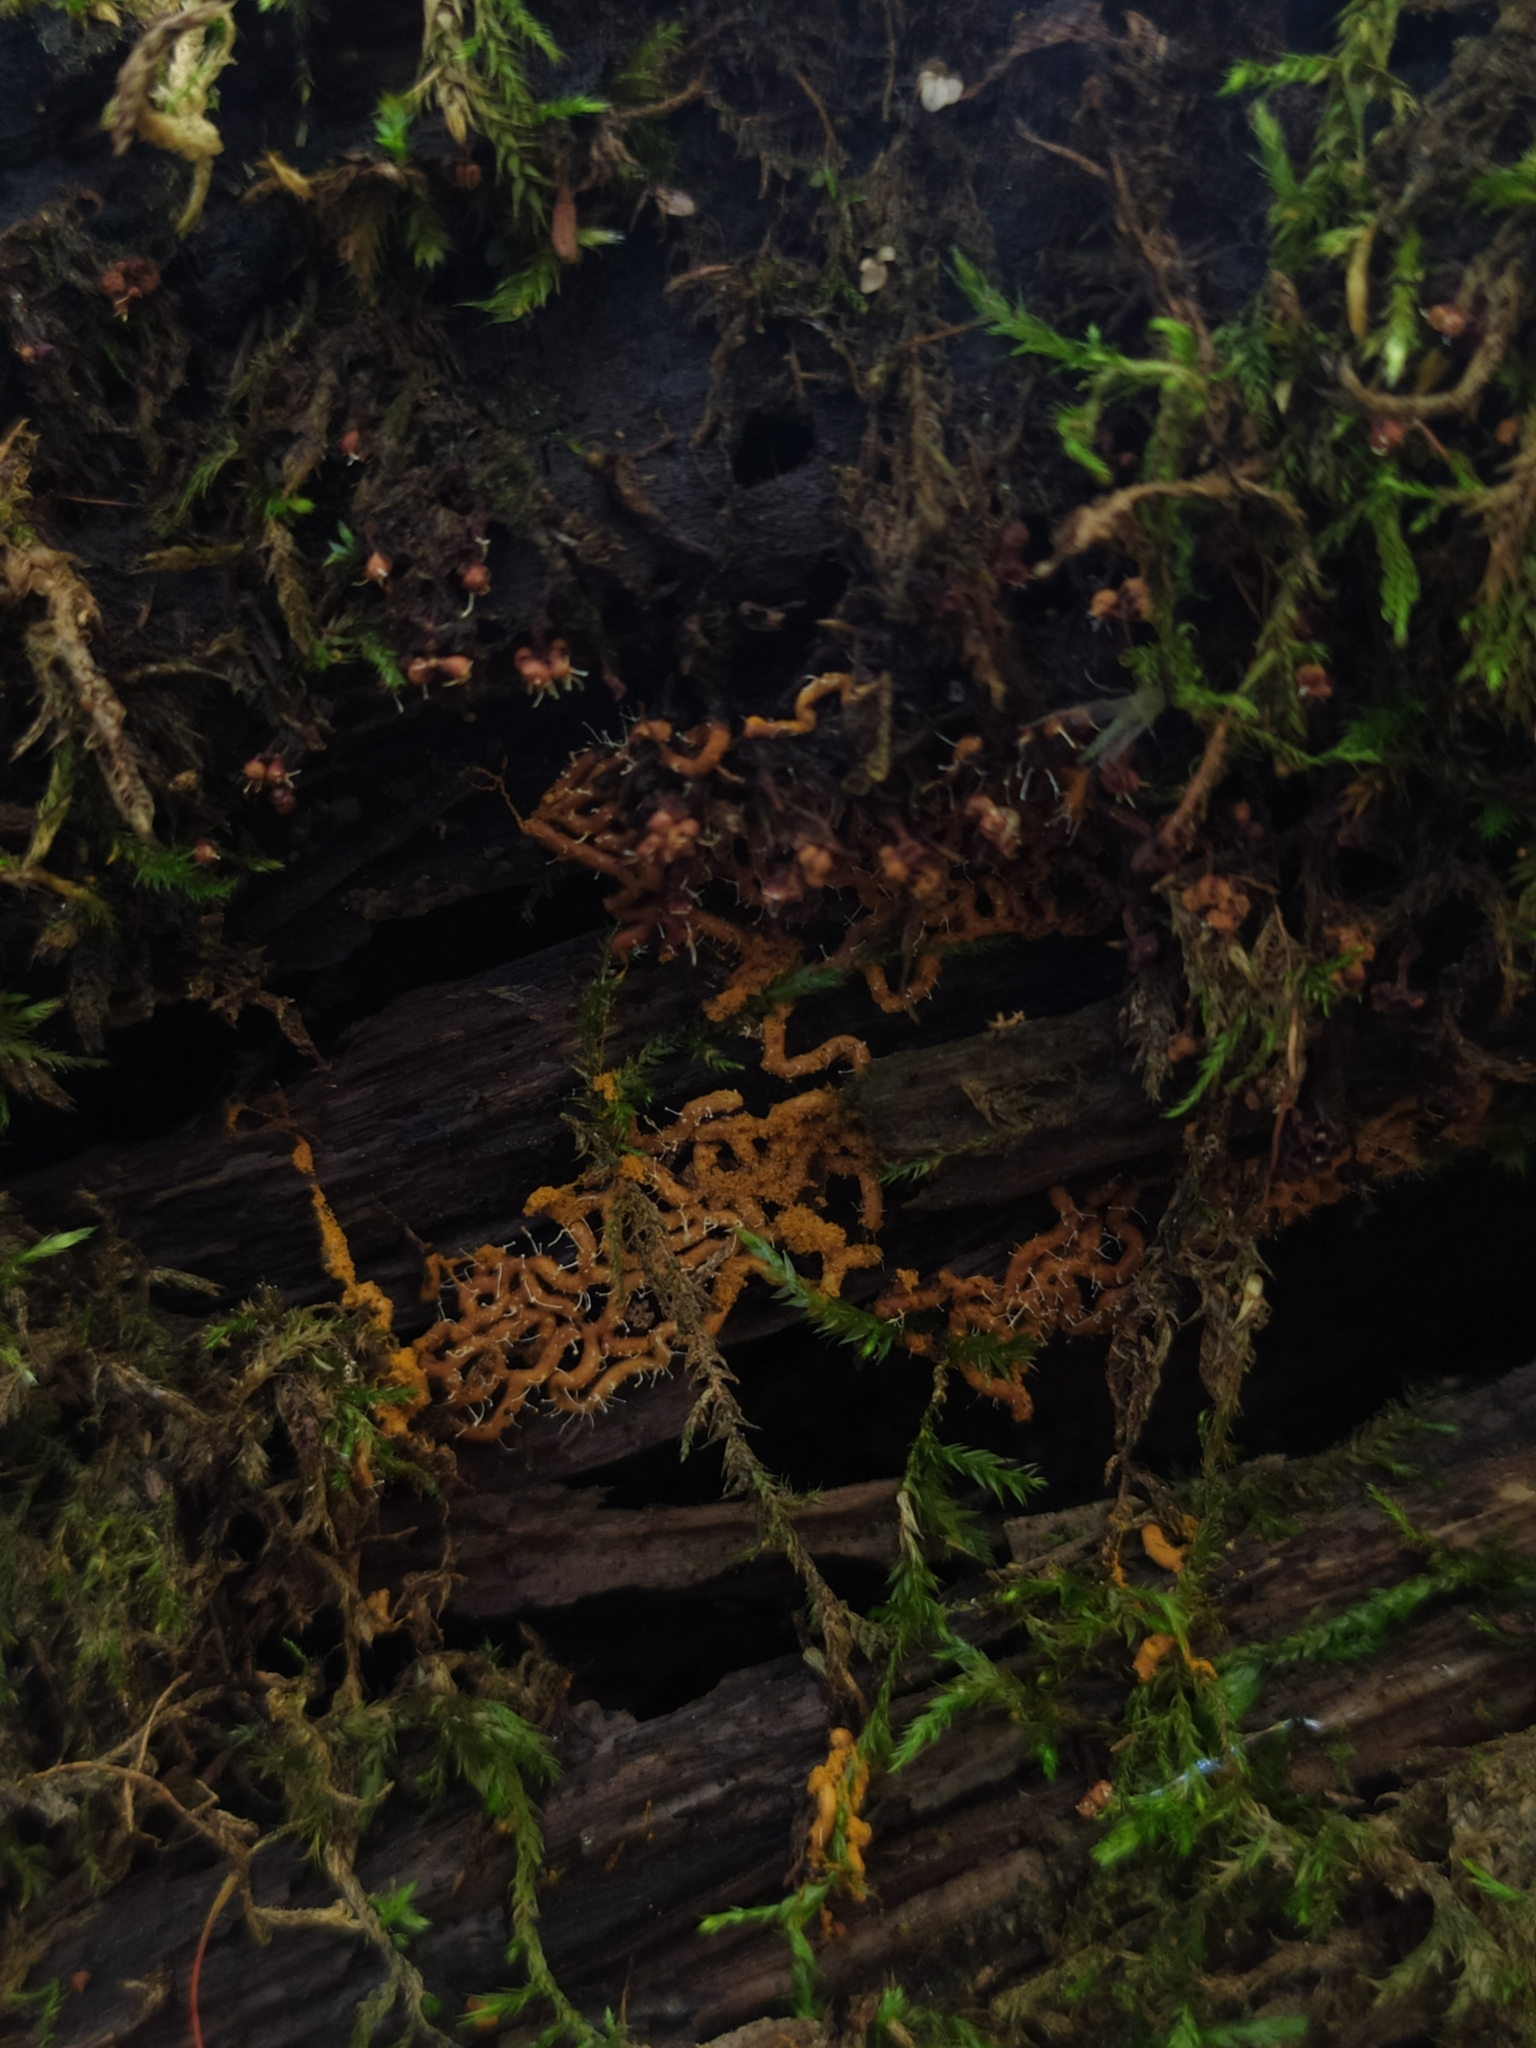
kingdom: Protozoa
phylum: Mycetozoa
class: Myxomycetes
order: Trichiales
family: Arcyriaceae
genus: Hemitrichia
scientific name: Hemitrichia serpula
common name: Pretzel slime mold
